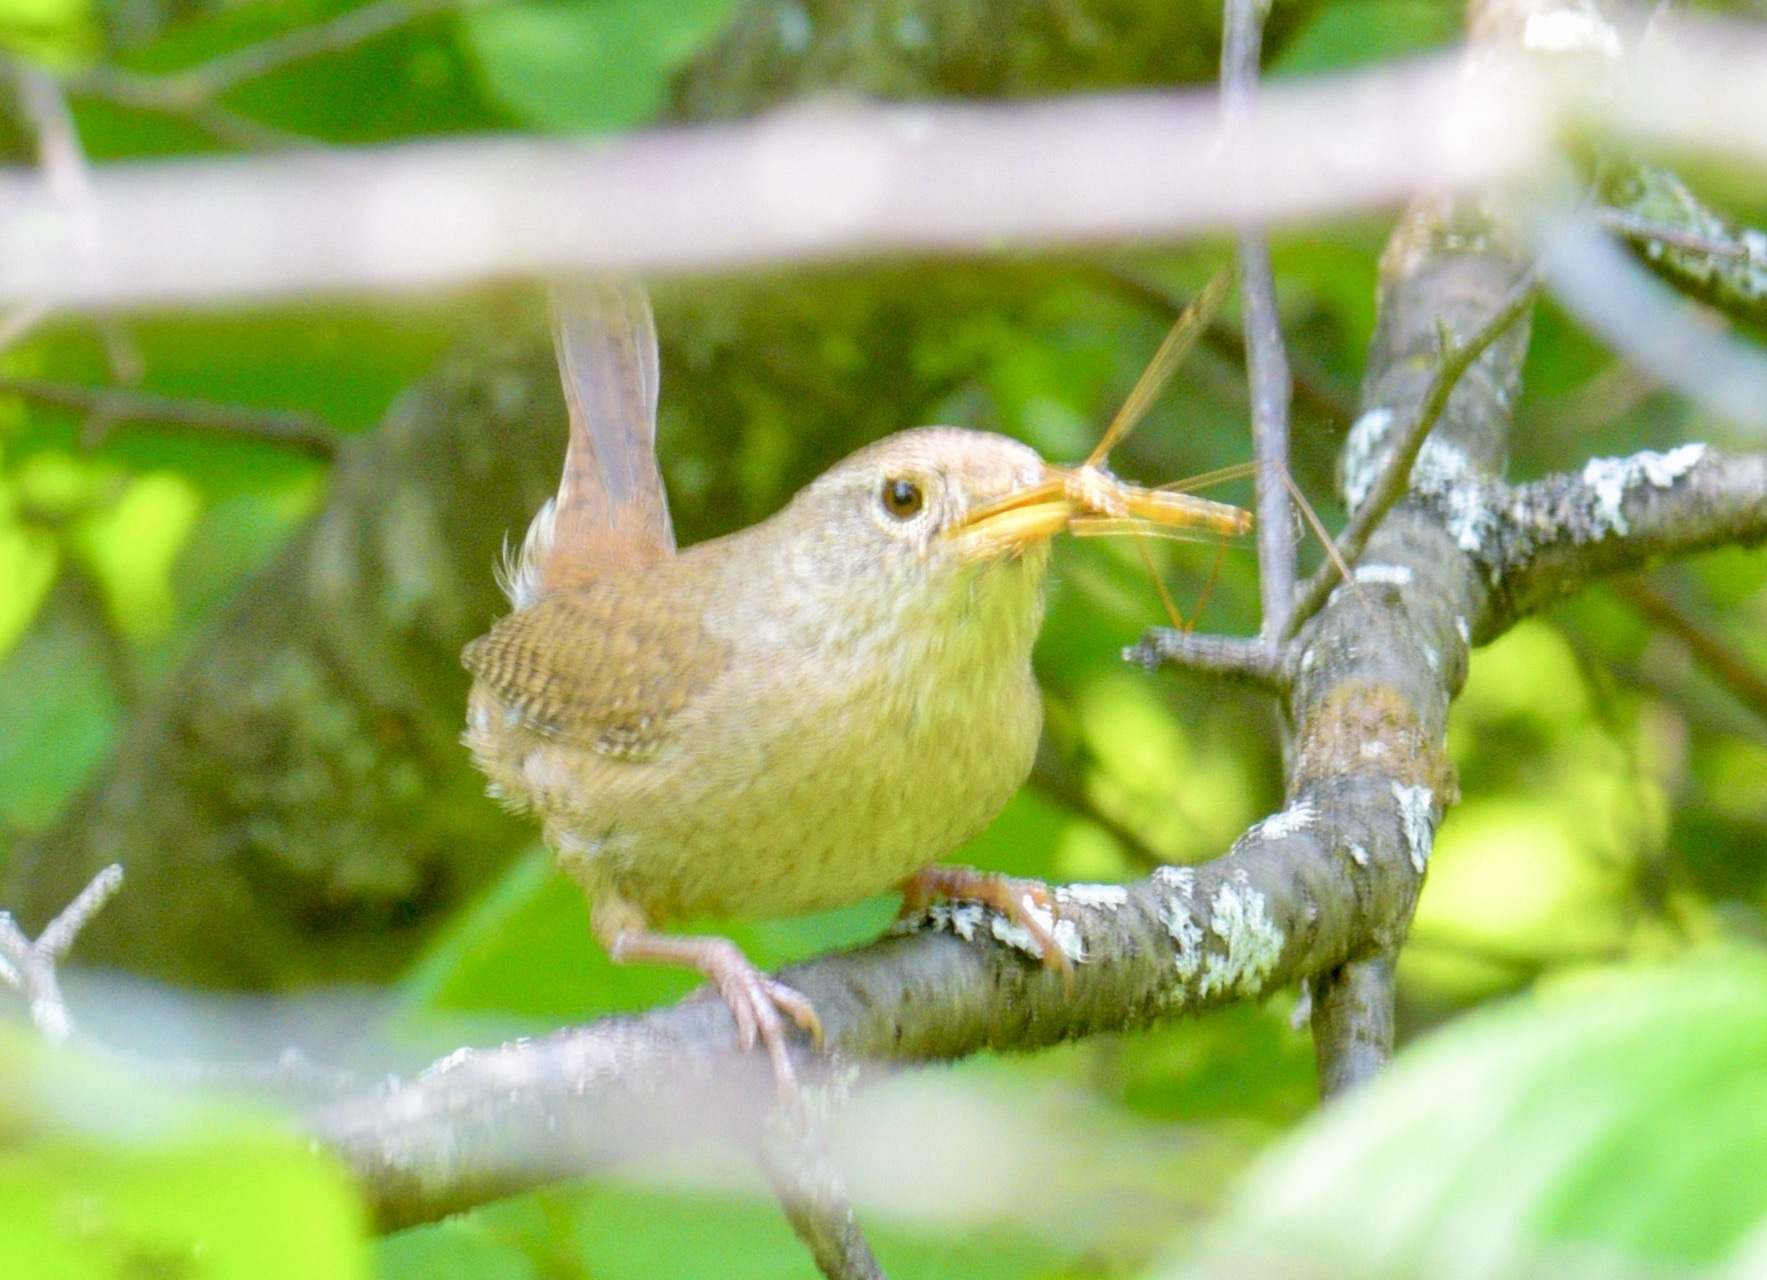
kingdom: Animalia
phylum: Chordata
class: Aves
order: Passeriformes
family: Troglodytidae
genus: Troglodytes
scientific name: Troglodytes aedon
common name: House wren
